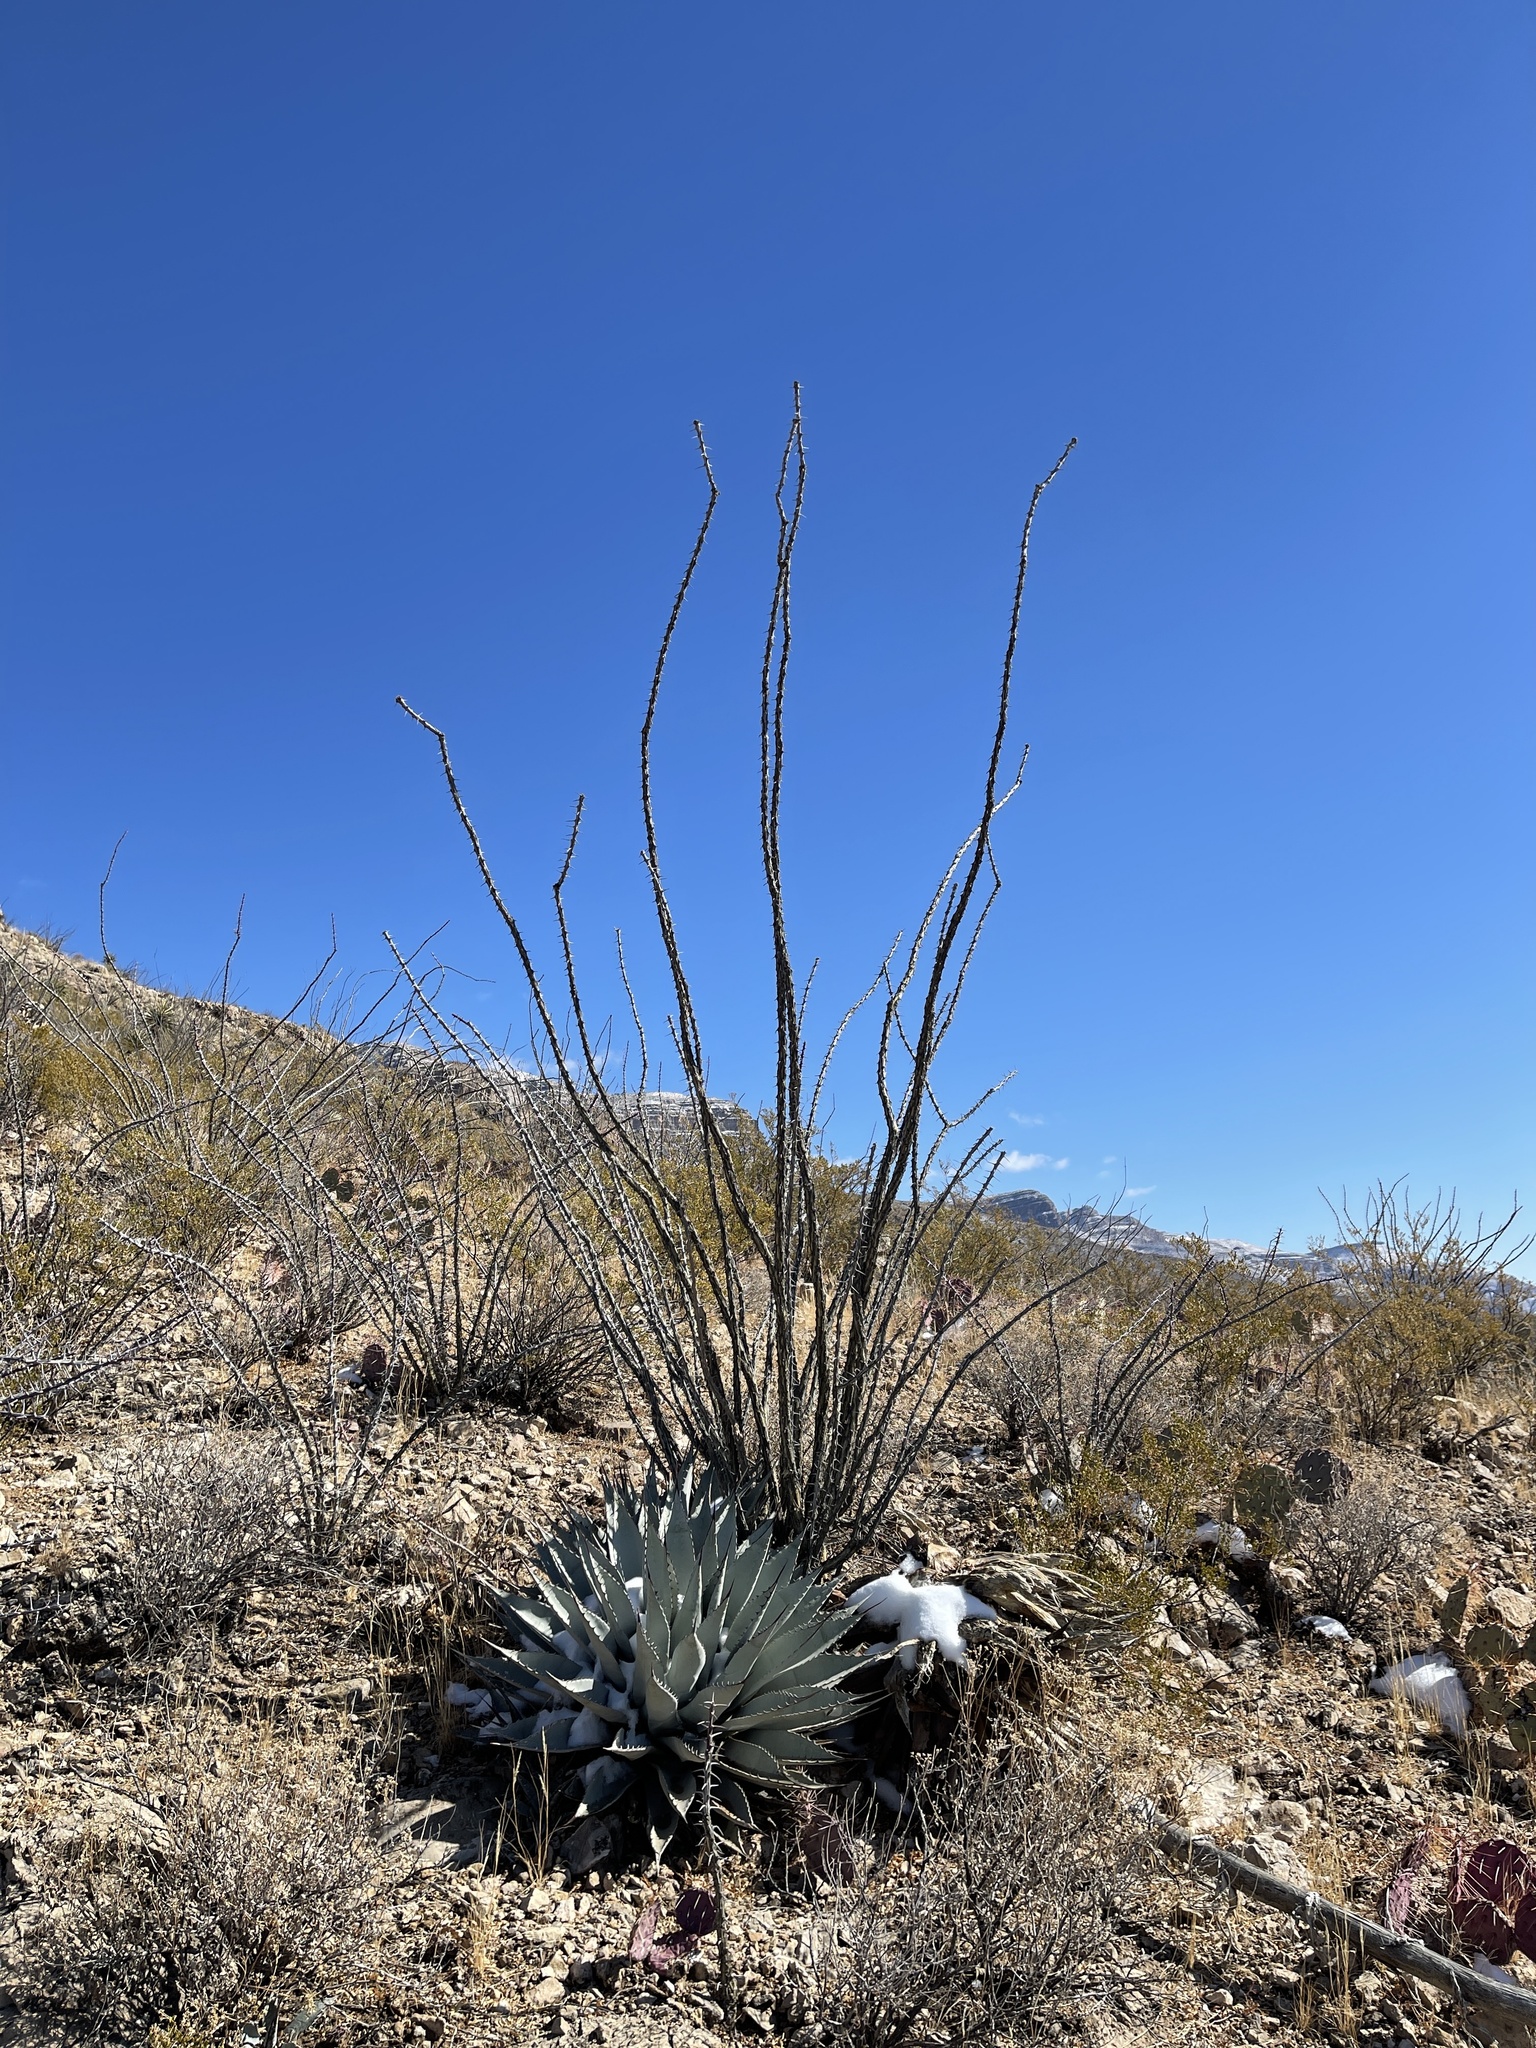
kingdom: Plantae
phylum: Tracheophyta
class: Magnoliopsida
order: Ericales
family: Fouquieriaceae
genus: Fouquieria
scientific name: Fouquieria splendens
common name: Vine-cactus
